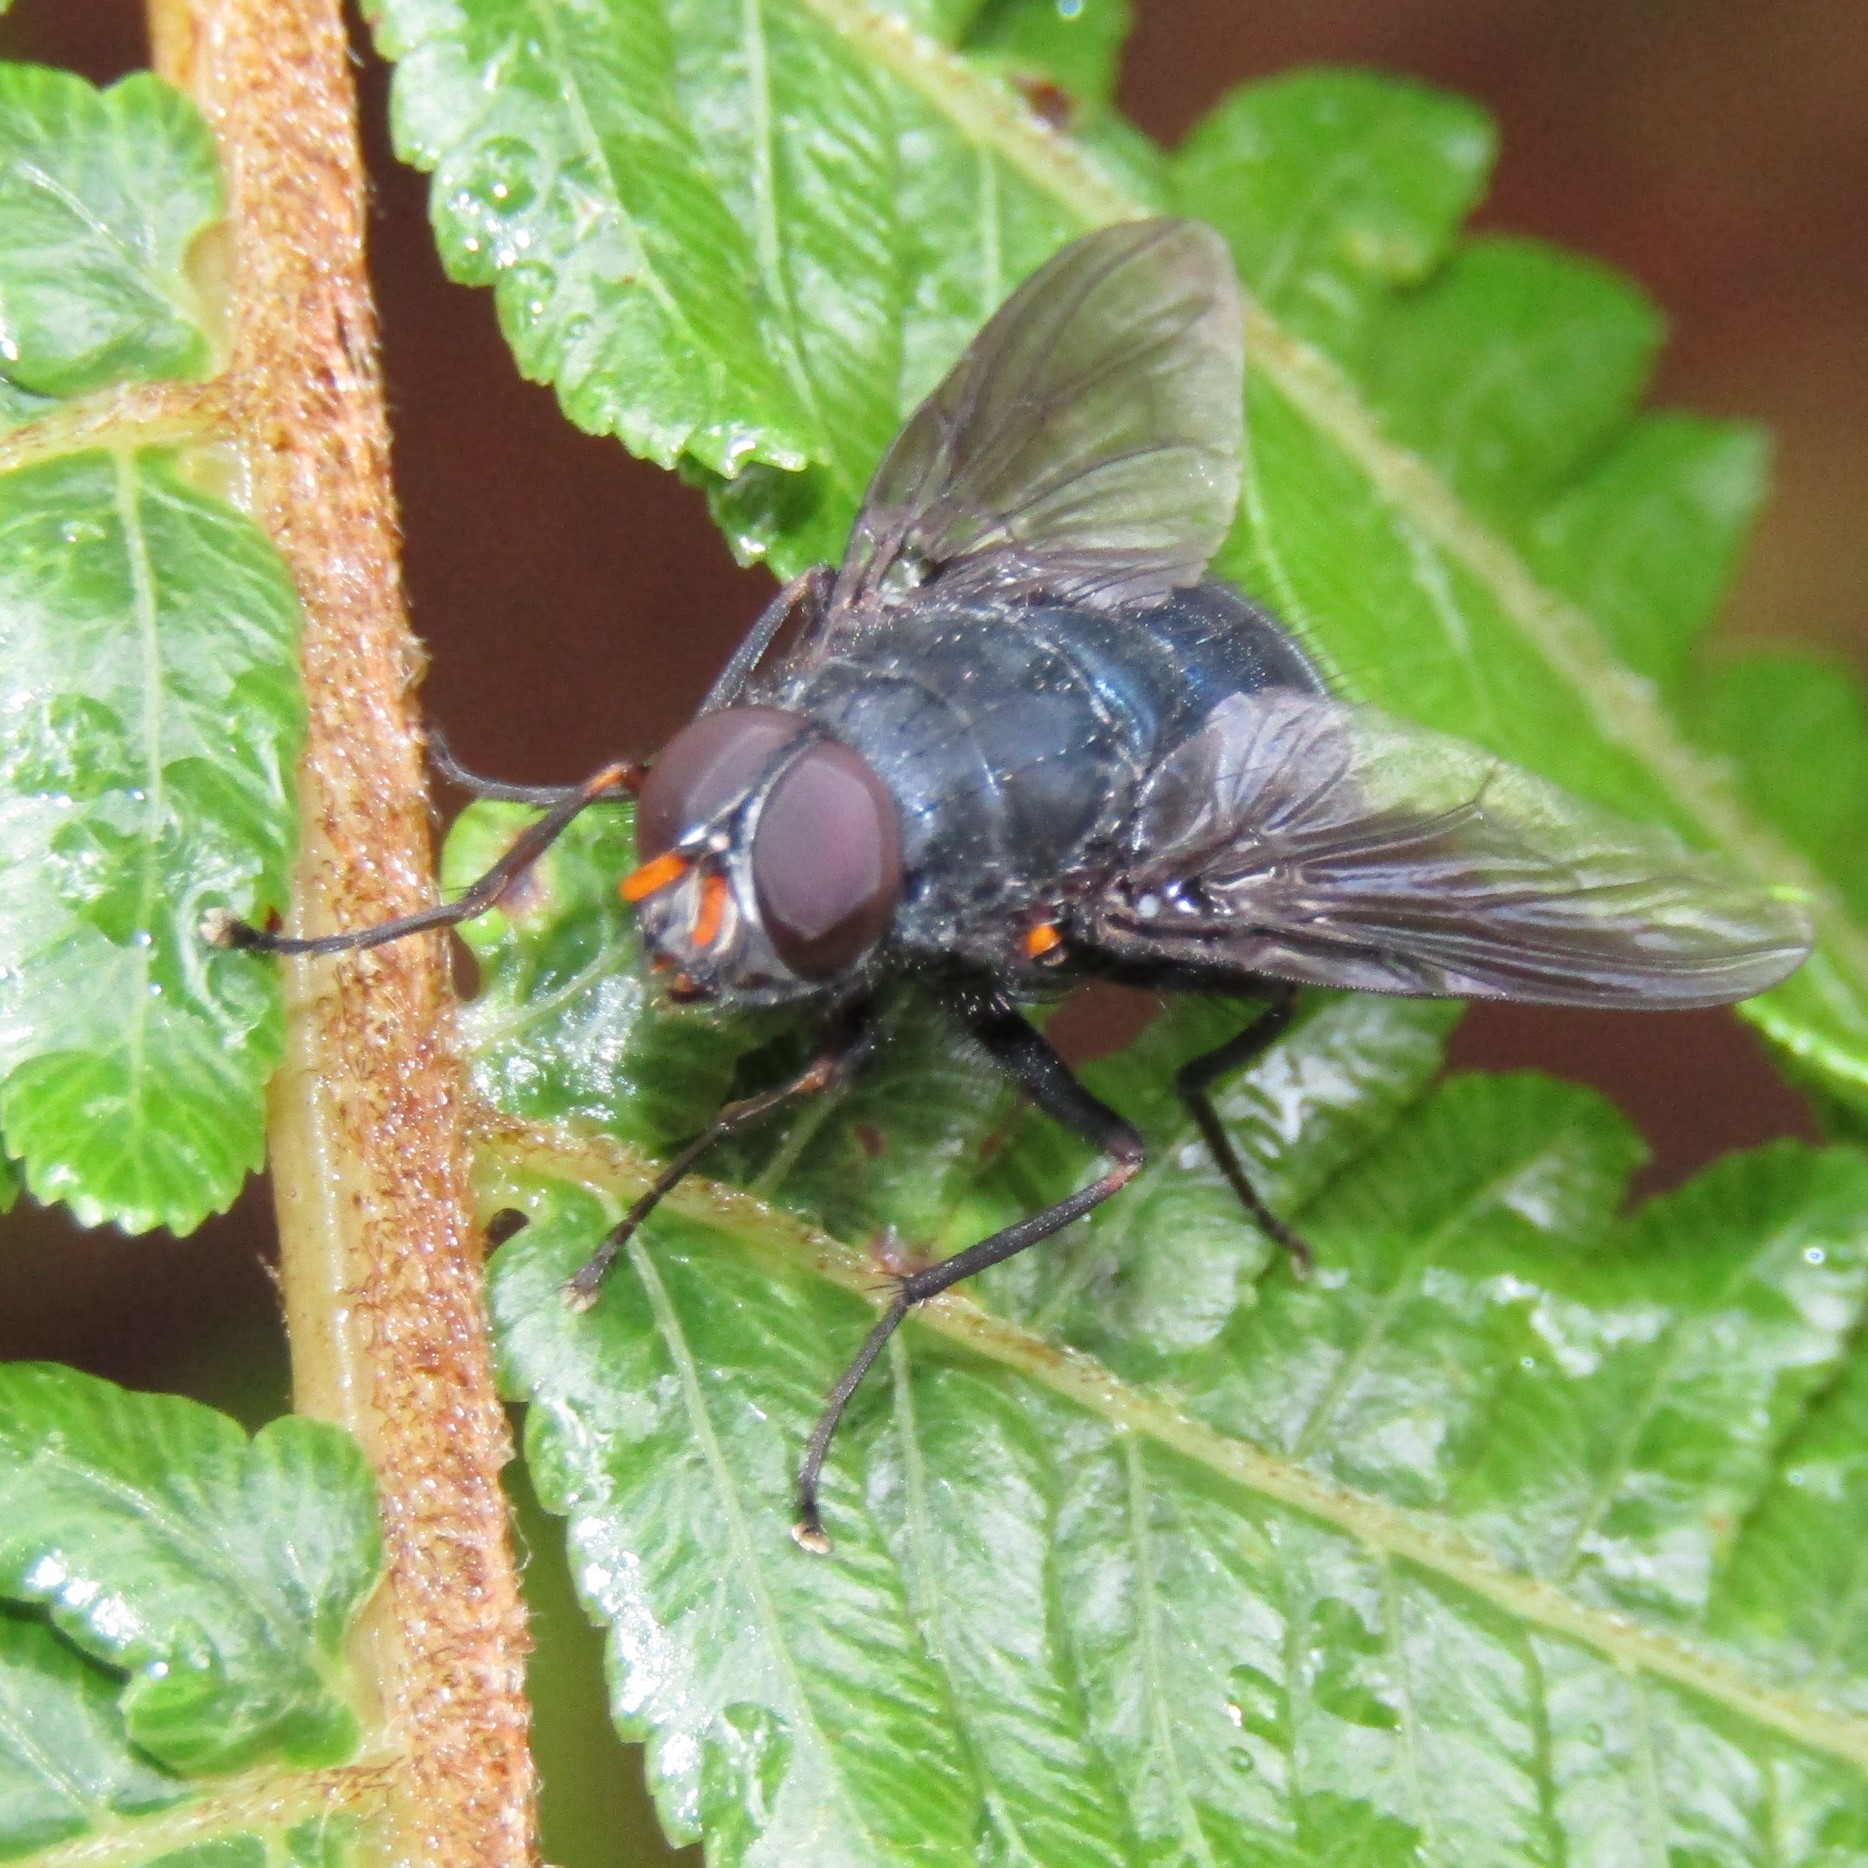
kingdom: Animalia
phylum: Arthropoda
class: Insecta
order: Diptera
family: Muscidae
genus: Calliphoroides
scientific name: Calliphoroides antennatis
